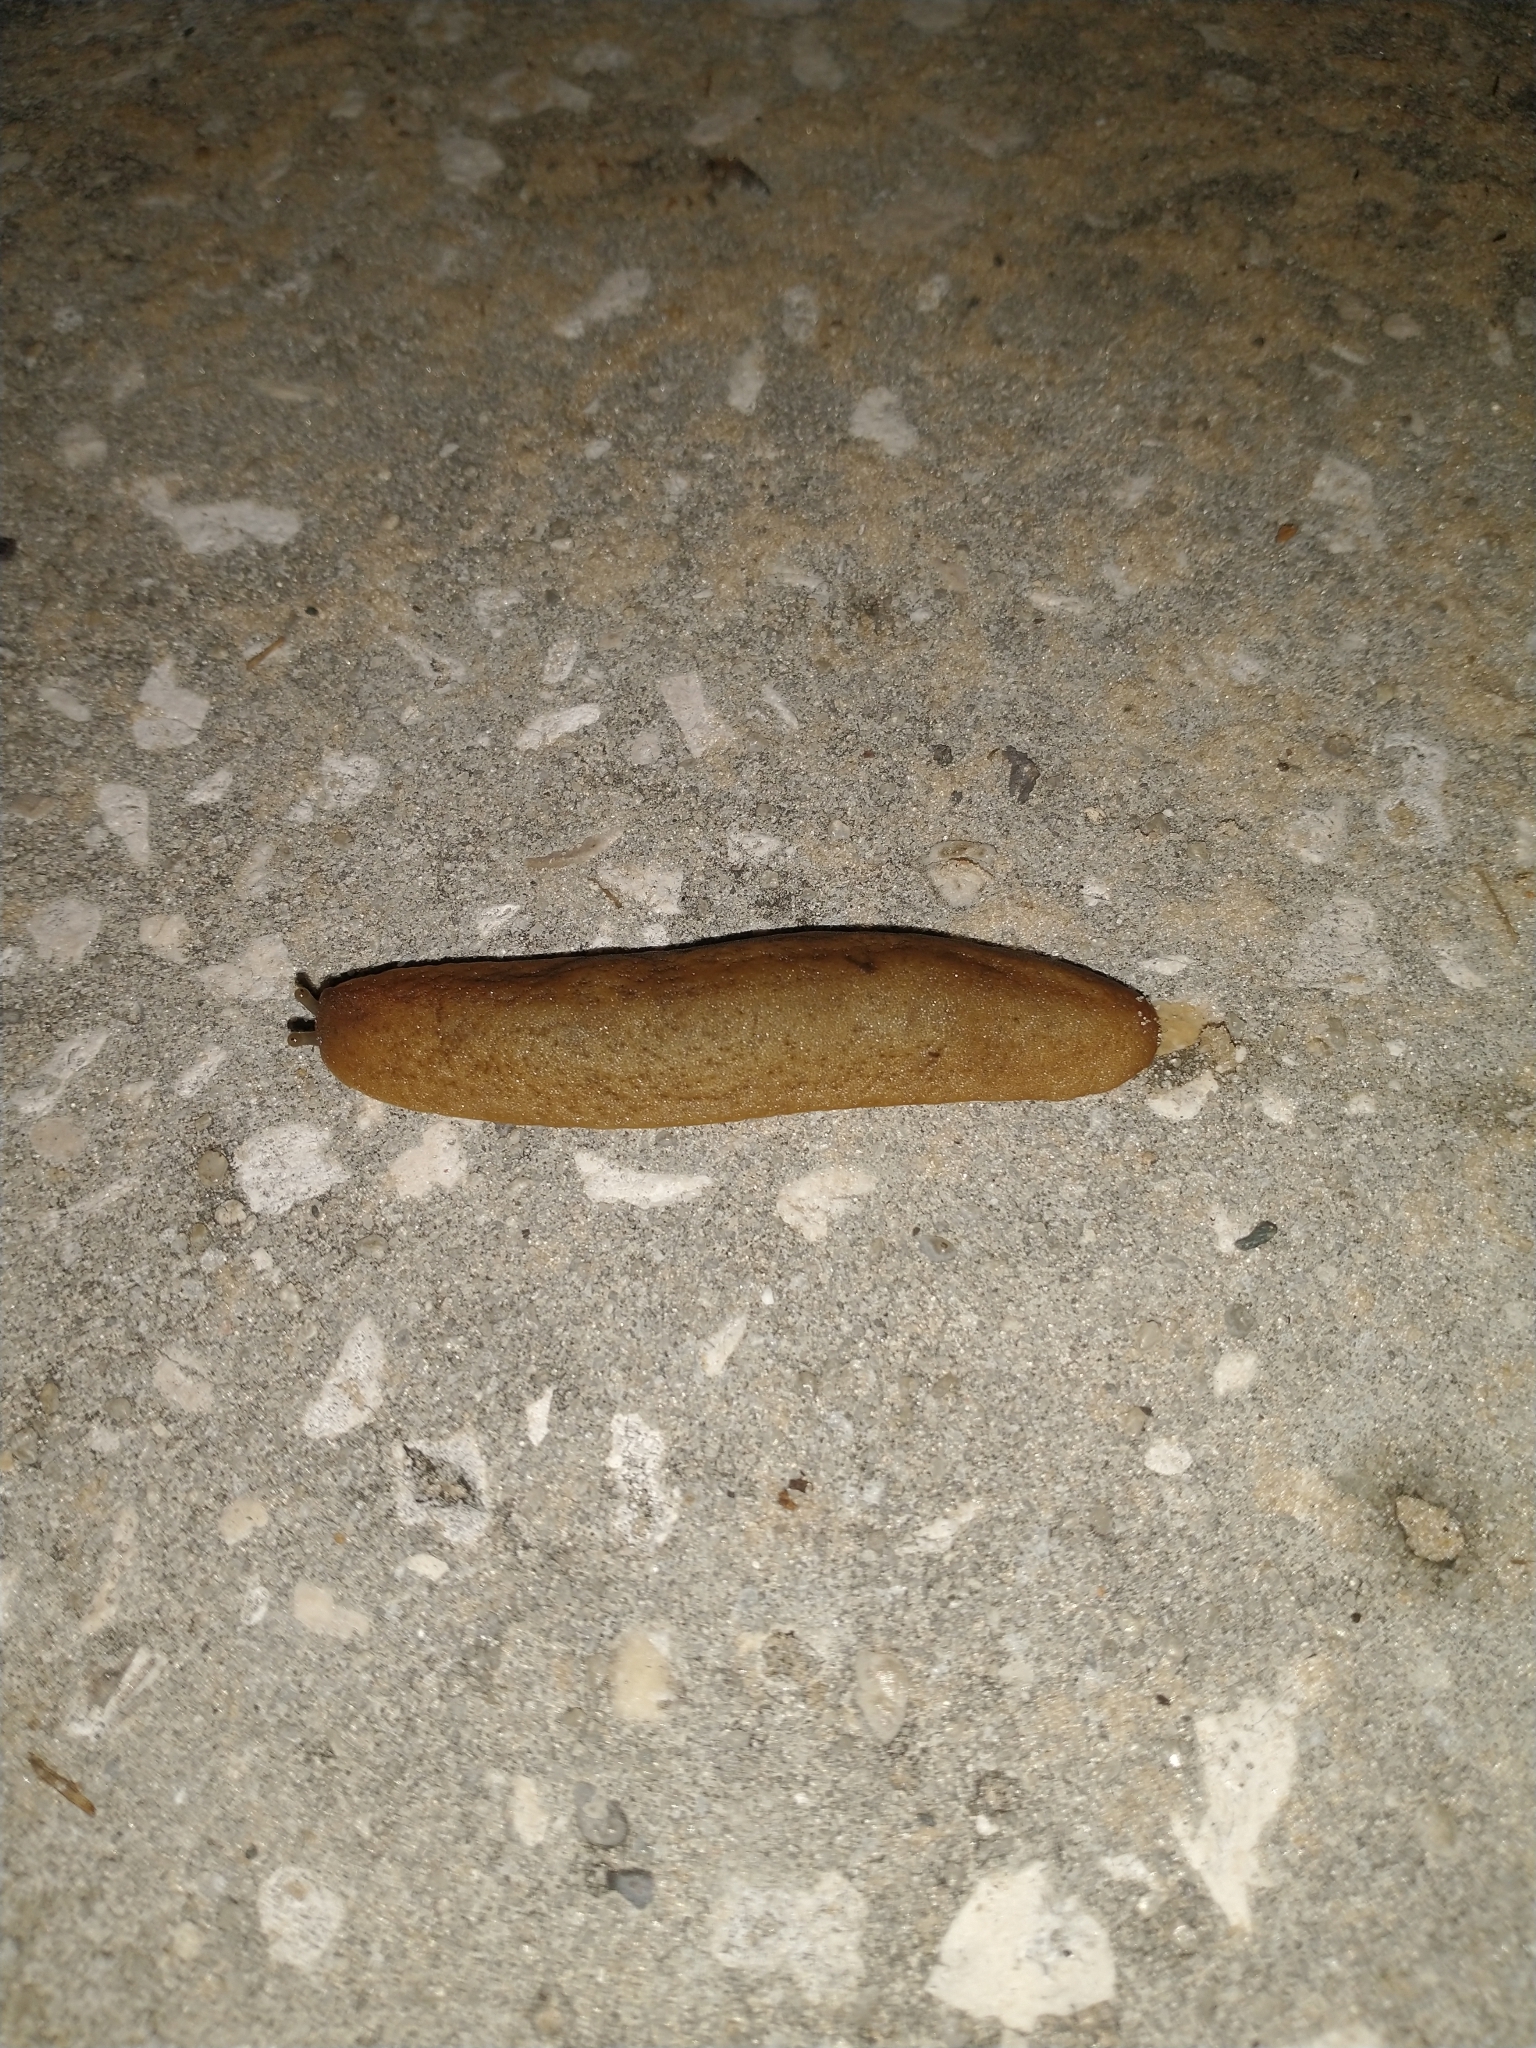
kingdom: Animalia
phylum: Mollusca
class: Gastropoda
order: Systellommatophora
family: Veronicellidae
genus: Sarasinula
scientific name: Sarasinula plebeia
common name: Caribbean leatherleaf
